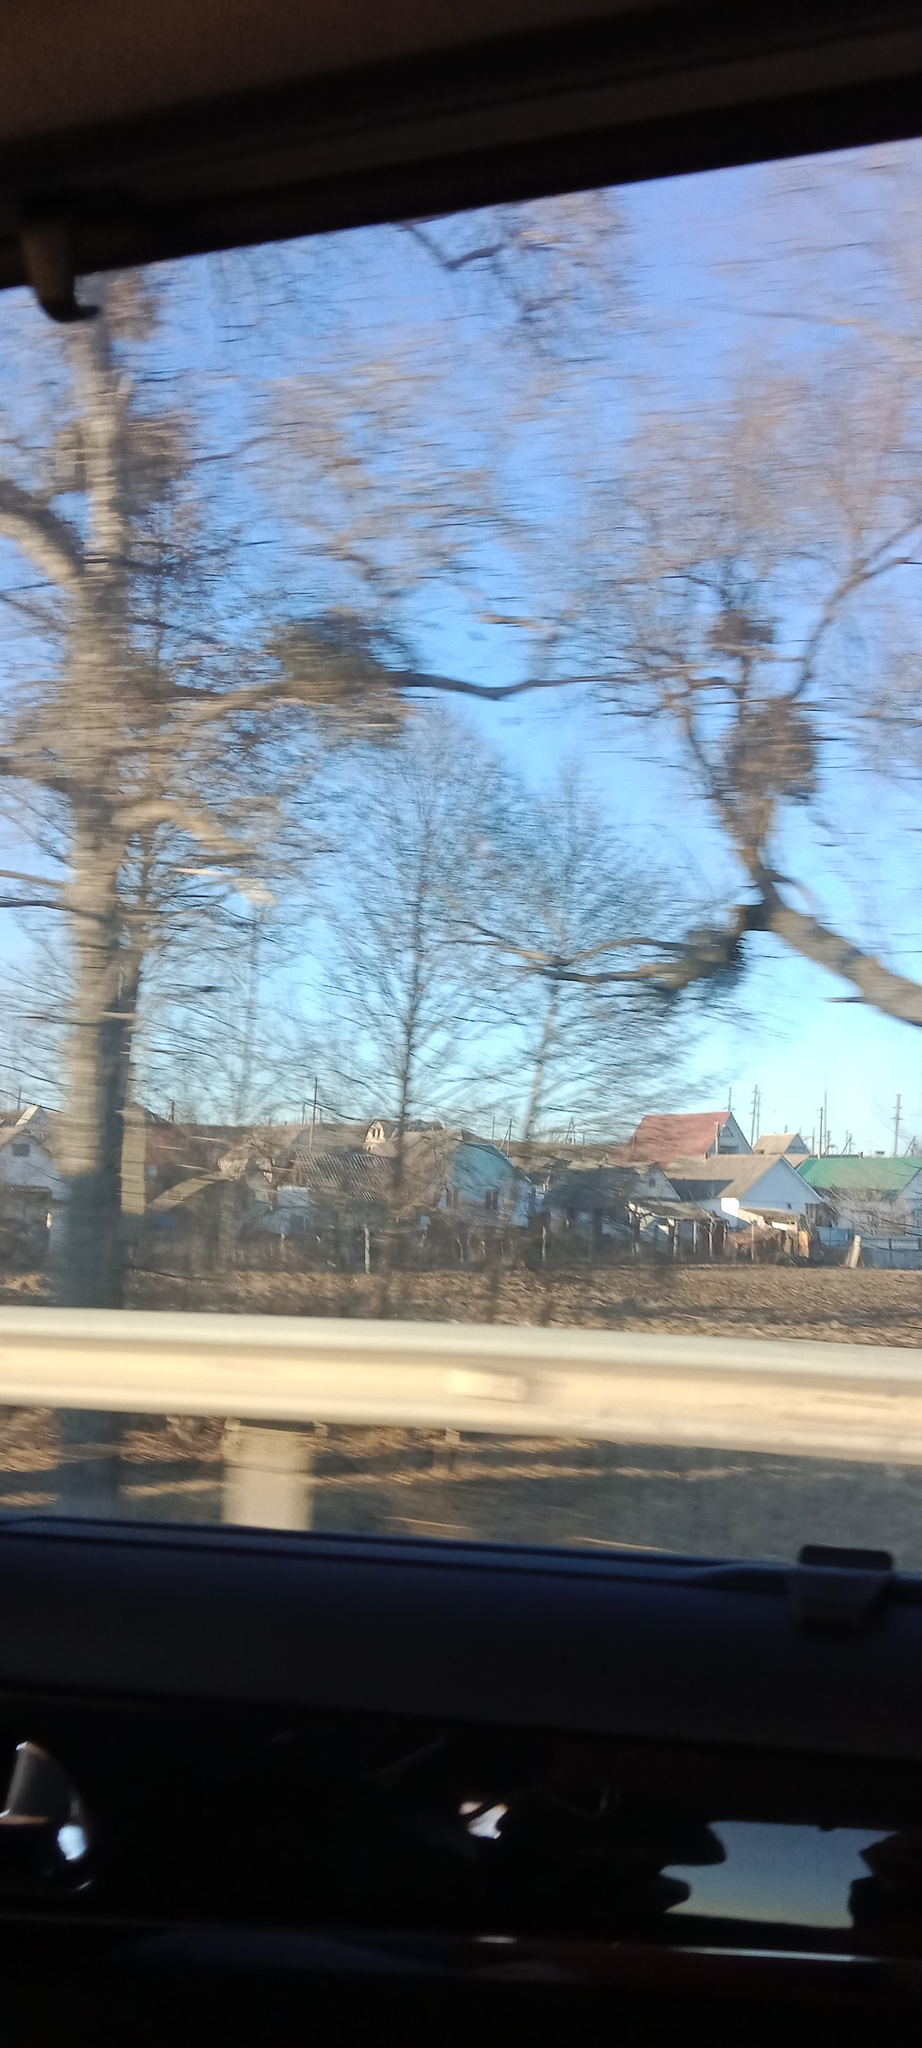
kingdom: Plantae
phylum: Tracheophyta
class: Magnoliopsida
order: Santalales
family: Viscaceae
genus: Viscum
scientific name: Viscum album
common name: Mistletoe
